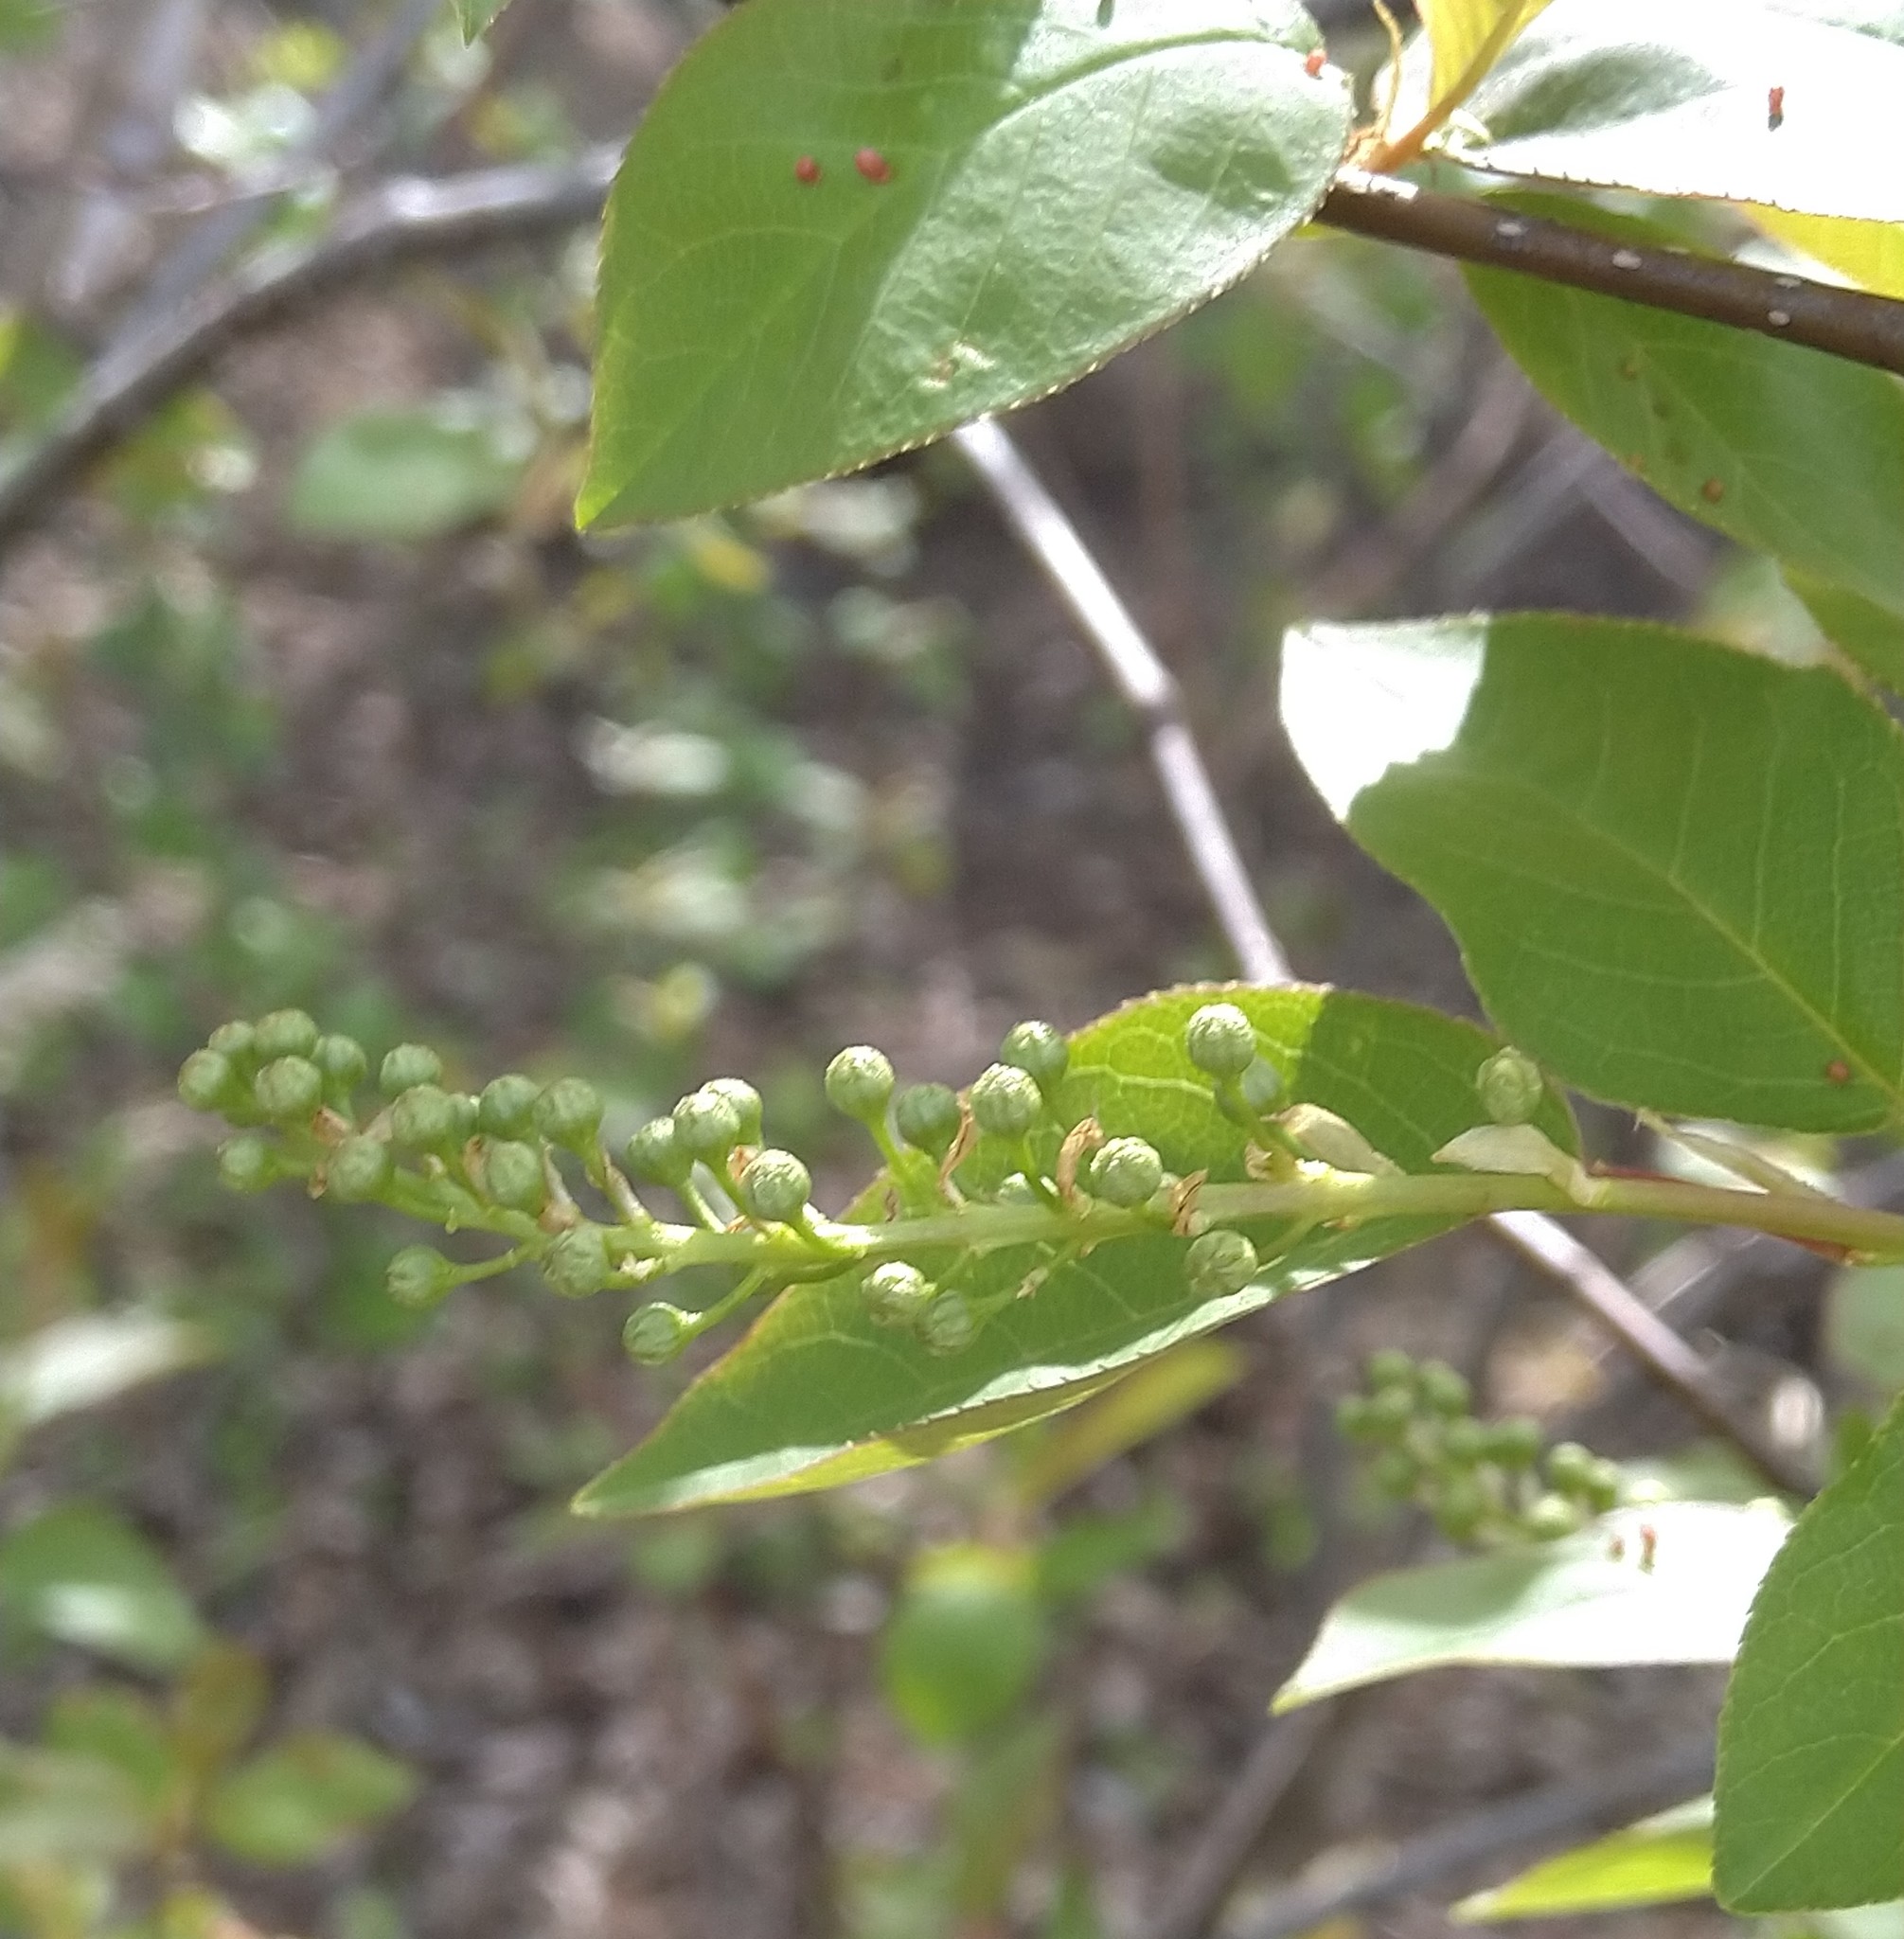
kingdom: Plantae
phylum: Tracheophyta
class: Magnoliopsida
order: Rosales
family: Rosaceae
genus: Prunus
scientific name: Prunus virginiana
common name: Chokecherry
